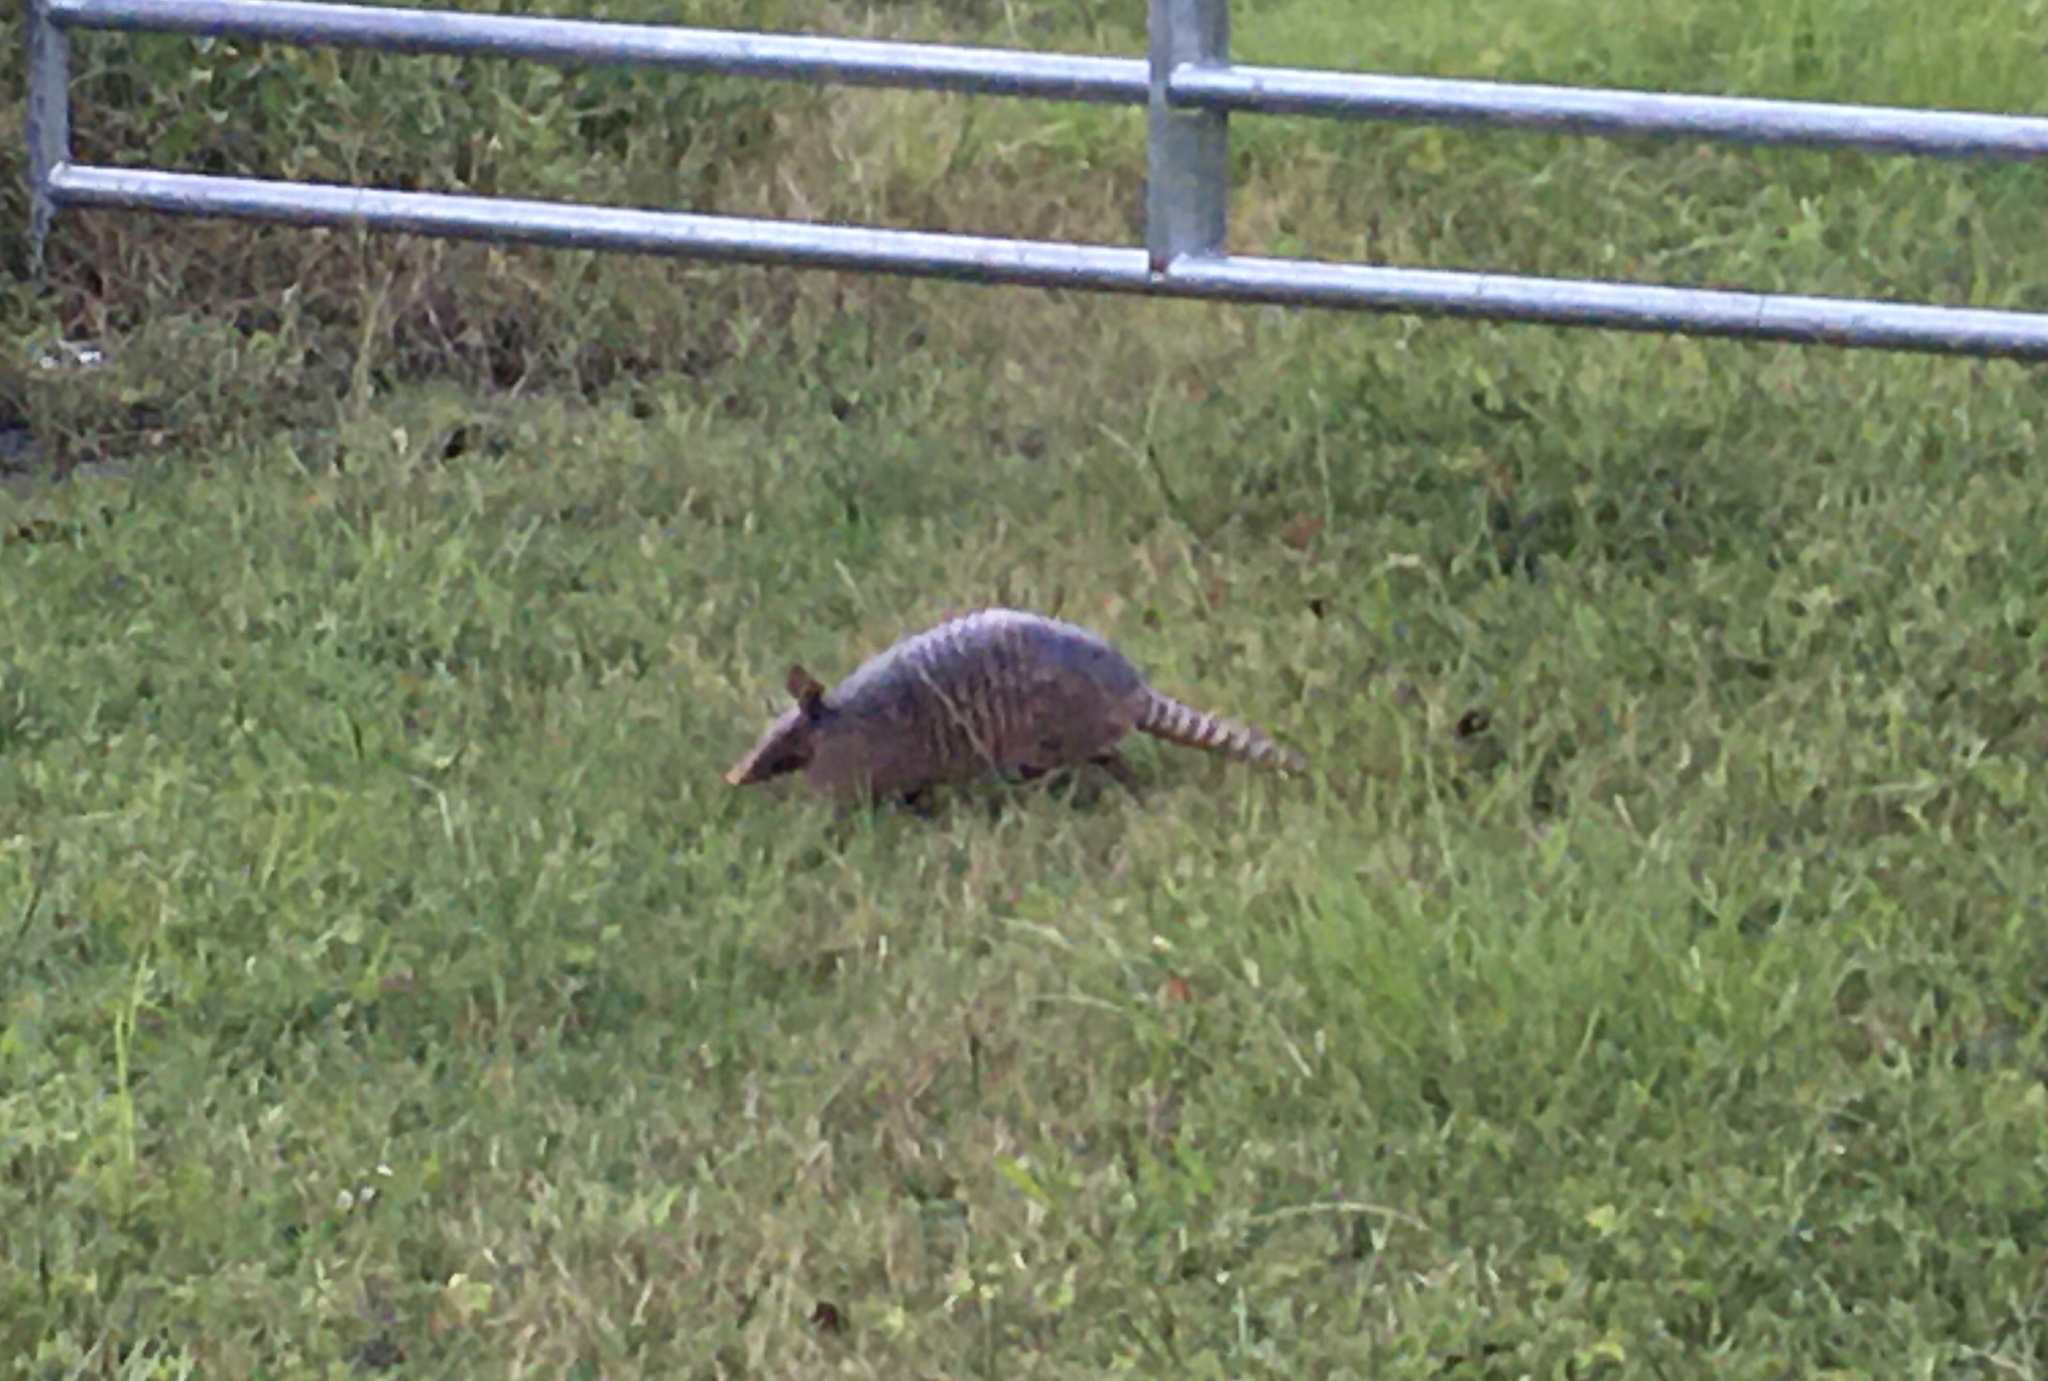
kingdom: Animalia
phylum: Chordata
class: Mammalia
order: Cingulata
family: Dasypodidae
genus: Dasypus
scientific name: Dasypus novemcinctus
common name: Nine-banded armadillo
